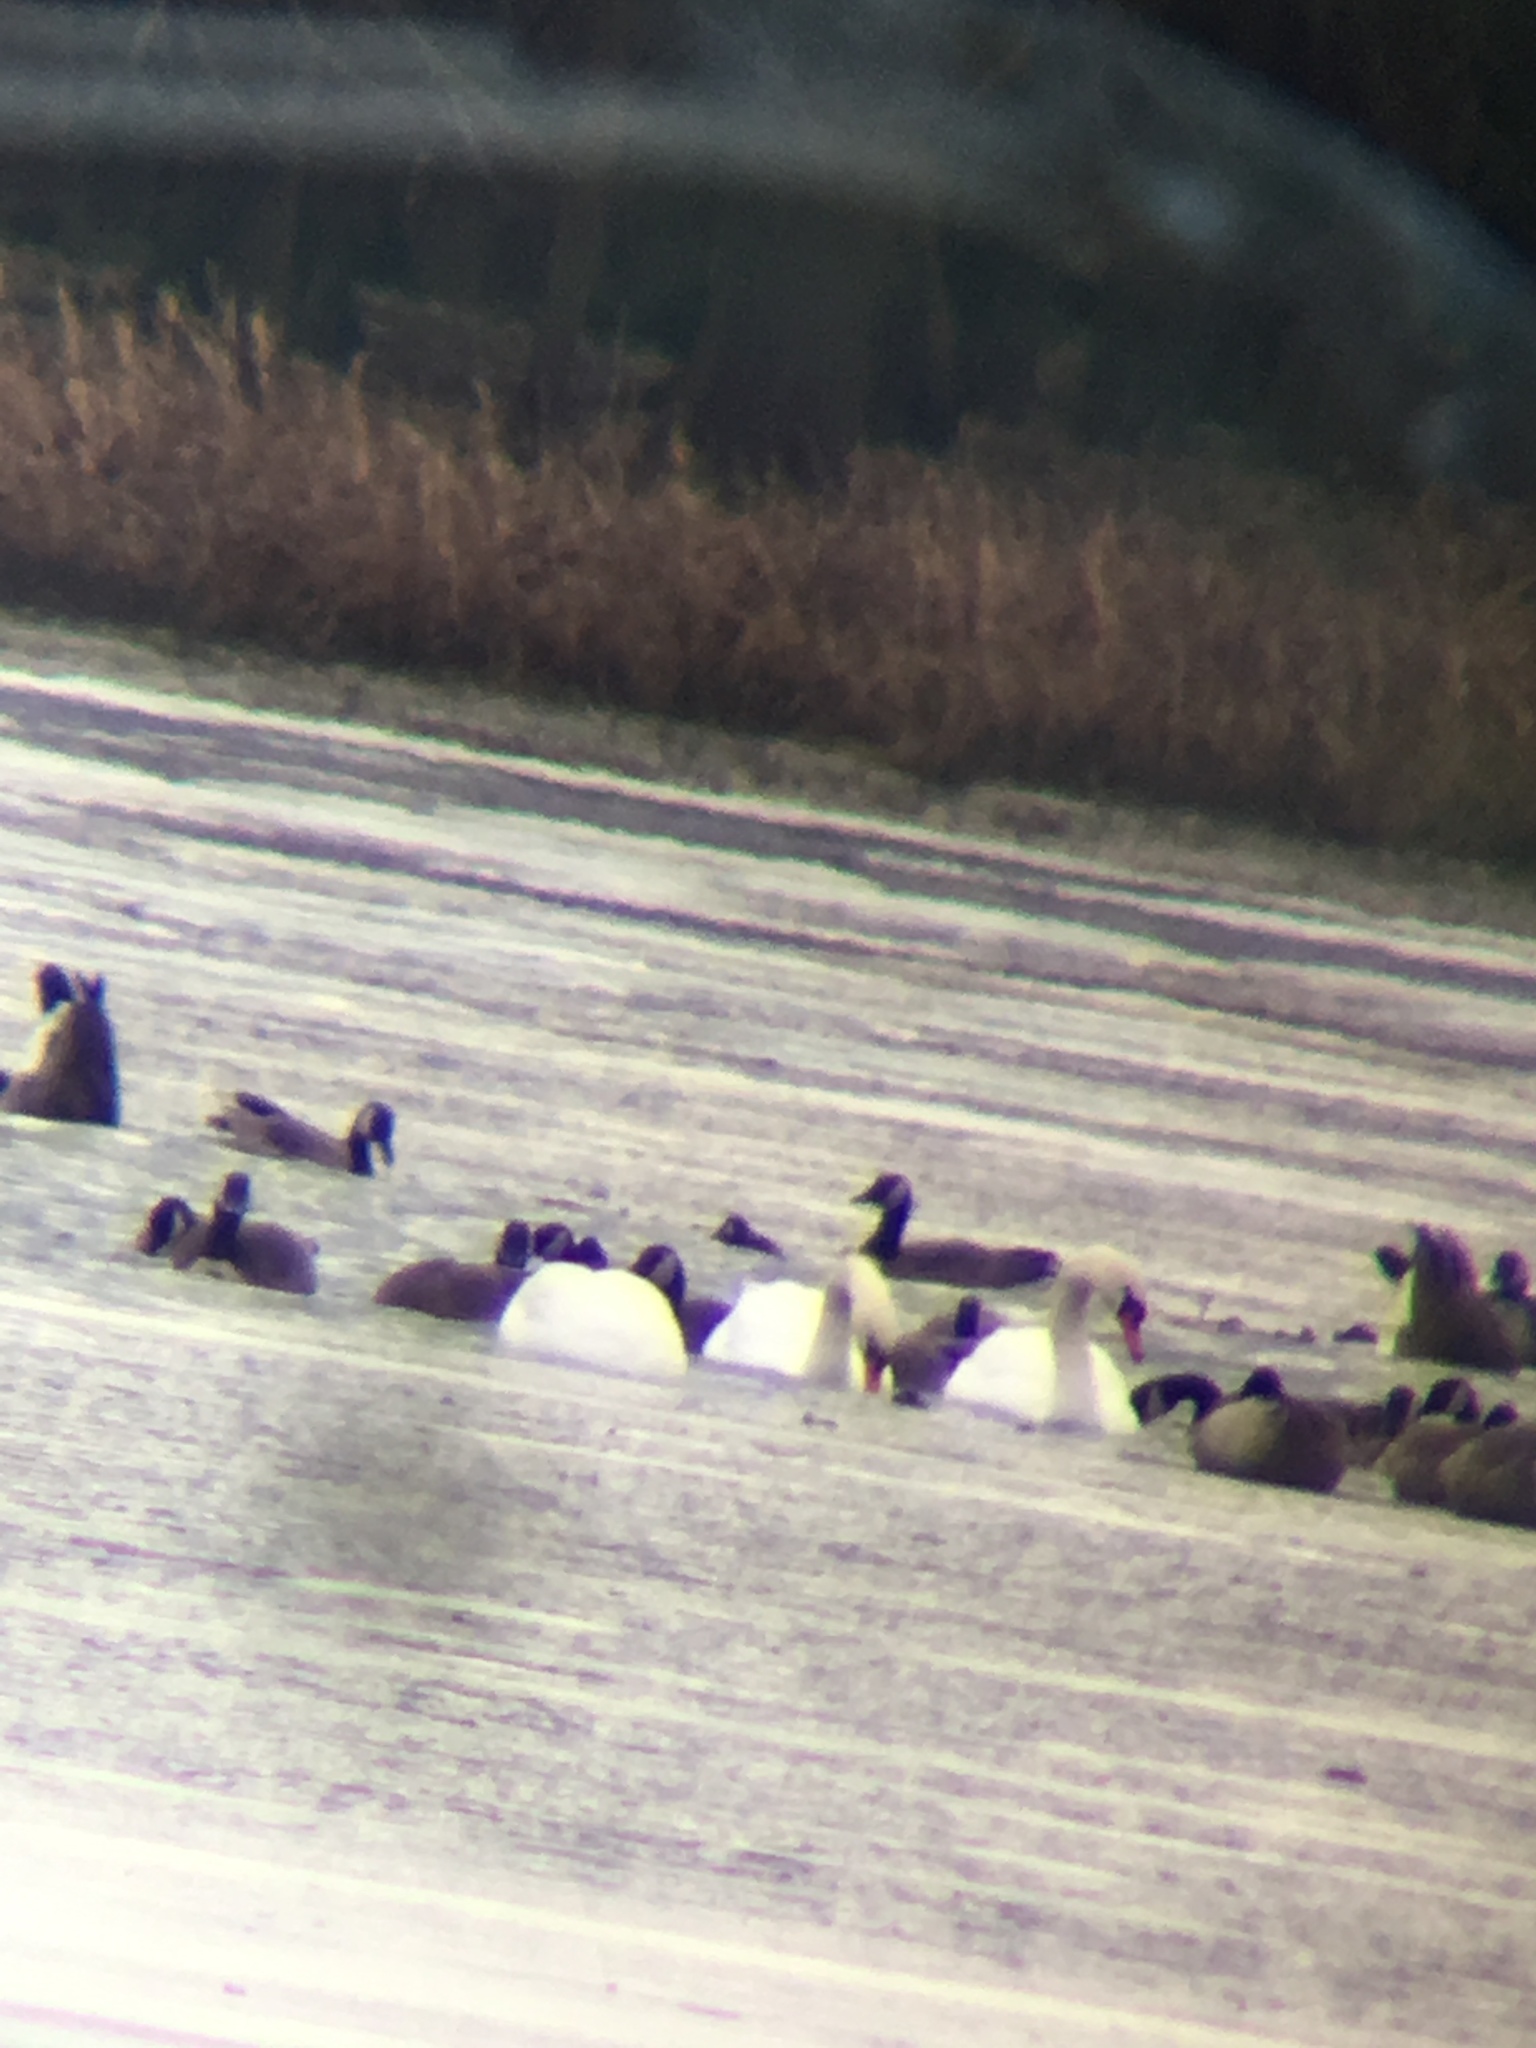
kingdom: Animalia
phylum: Chordata
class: Aves
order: Anseriformes
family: Anatidae
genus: Cygnus
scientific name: Cygnus olor
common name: Mute swan
